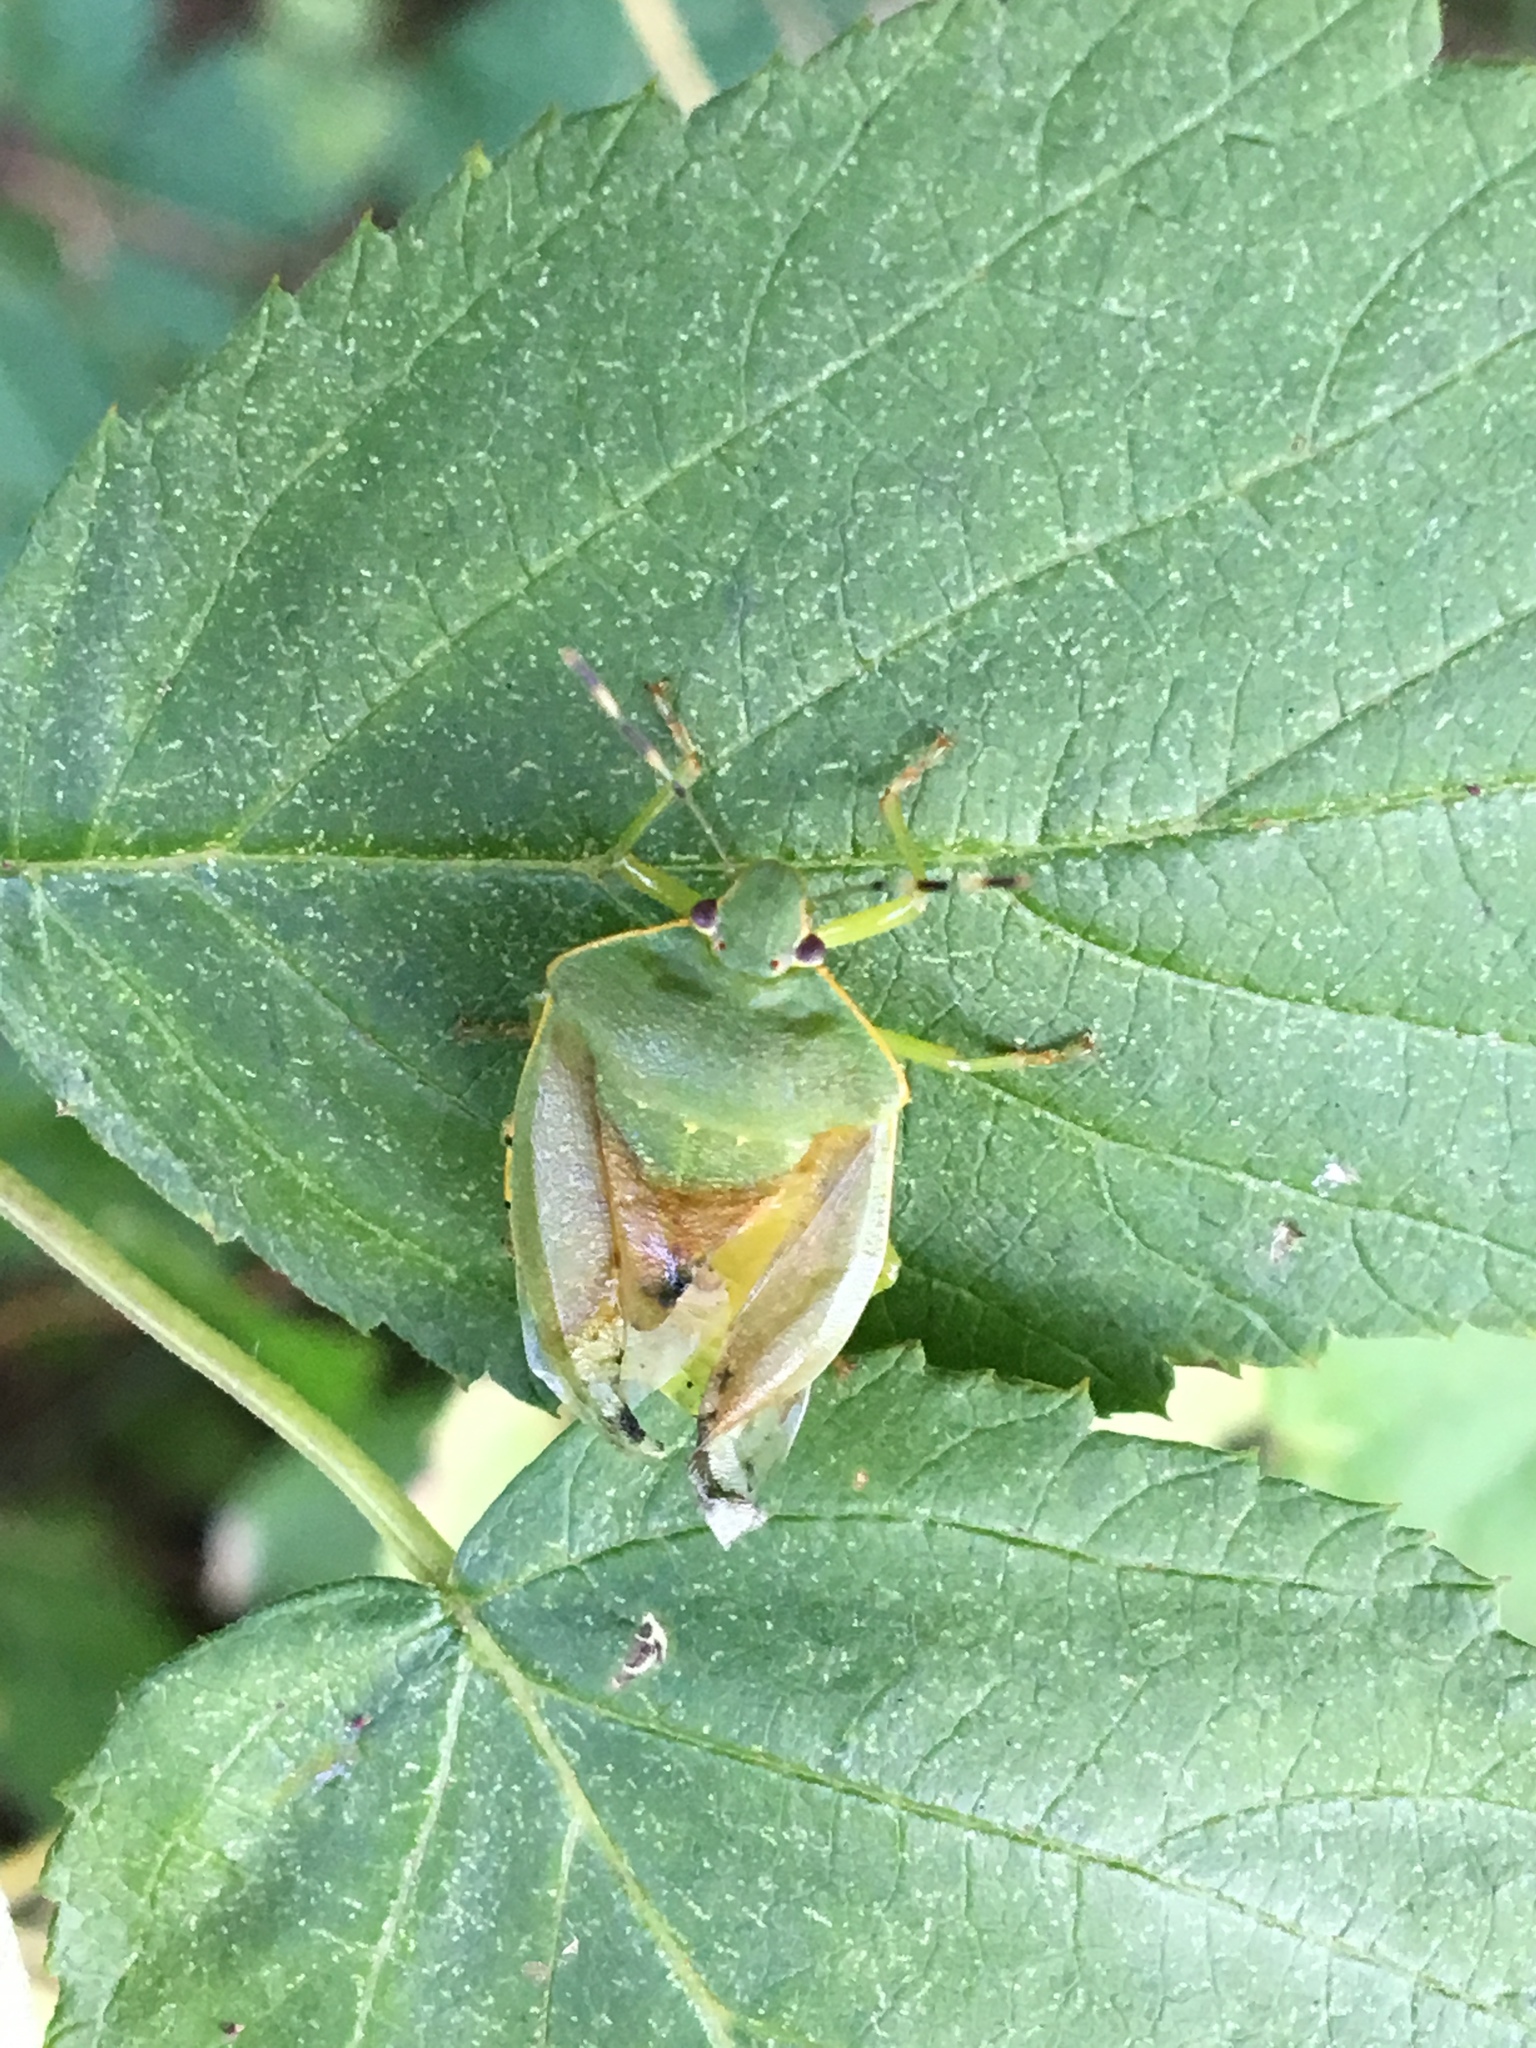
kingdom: Animalia
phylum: Arthropoda
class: Insecta
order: Hemiptera
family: Pentatomidae
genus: Chinavia
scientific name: Chinavia hilaris
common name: Green stink bug
